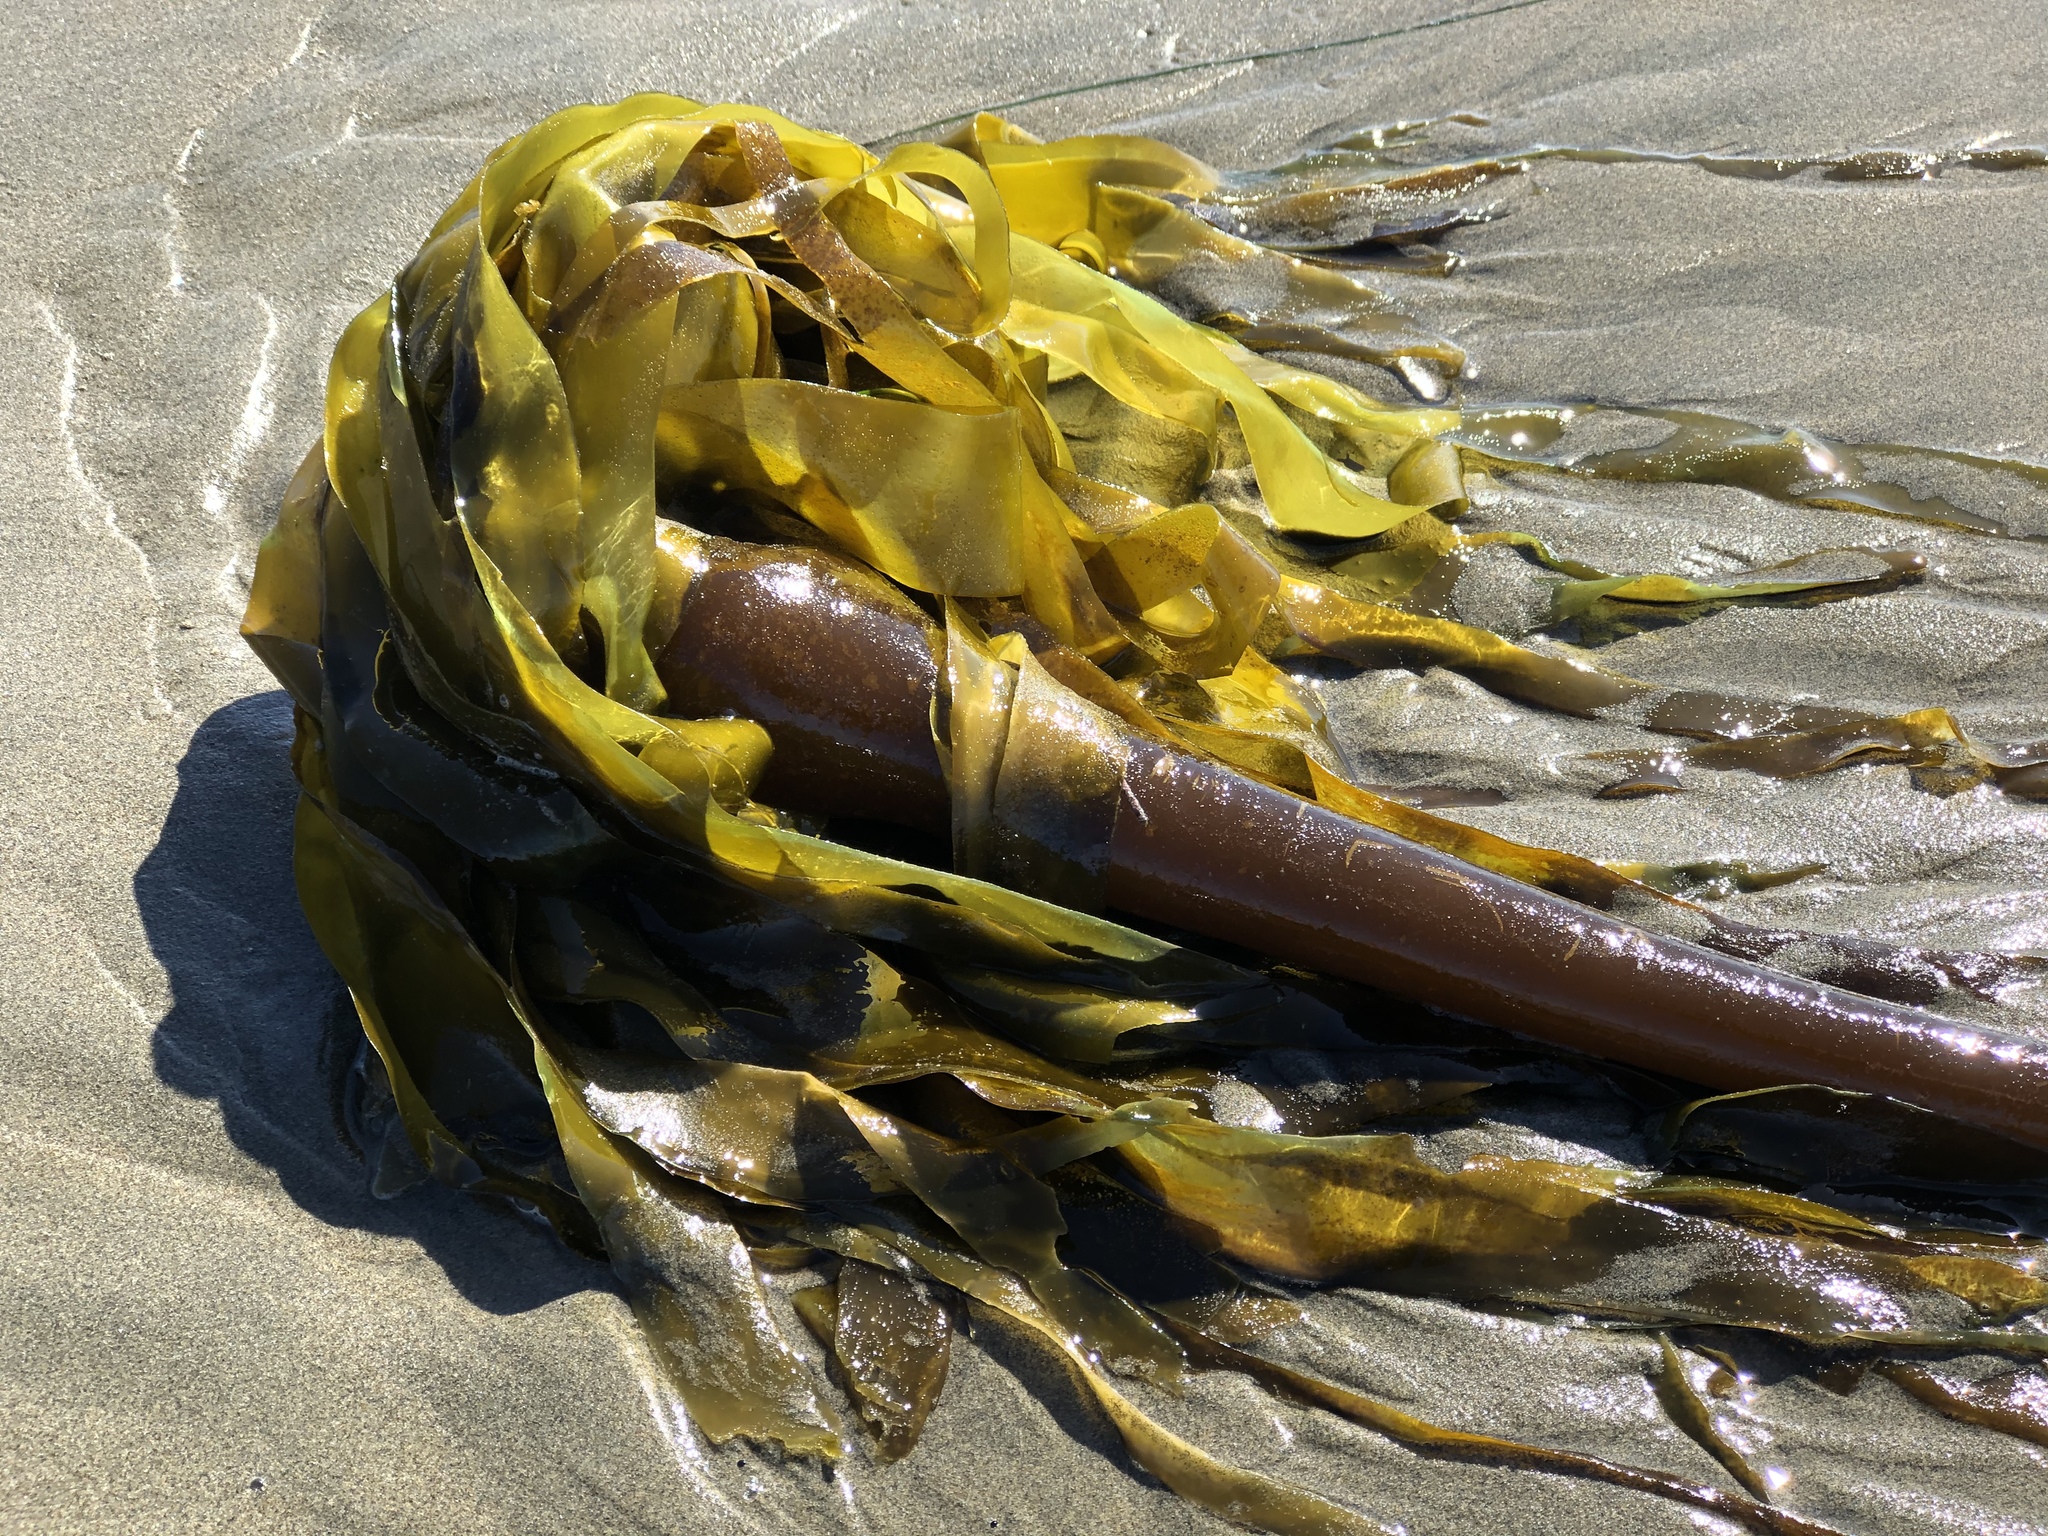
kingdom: Chromista
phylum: Ochrophyta
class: Phaeophyceae
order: Laminariales
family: Laminariaceae
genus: Nereocystis
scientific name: Nereocystis luetkeana
